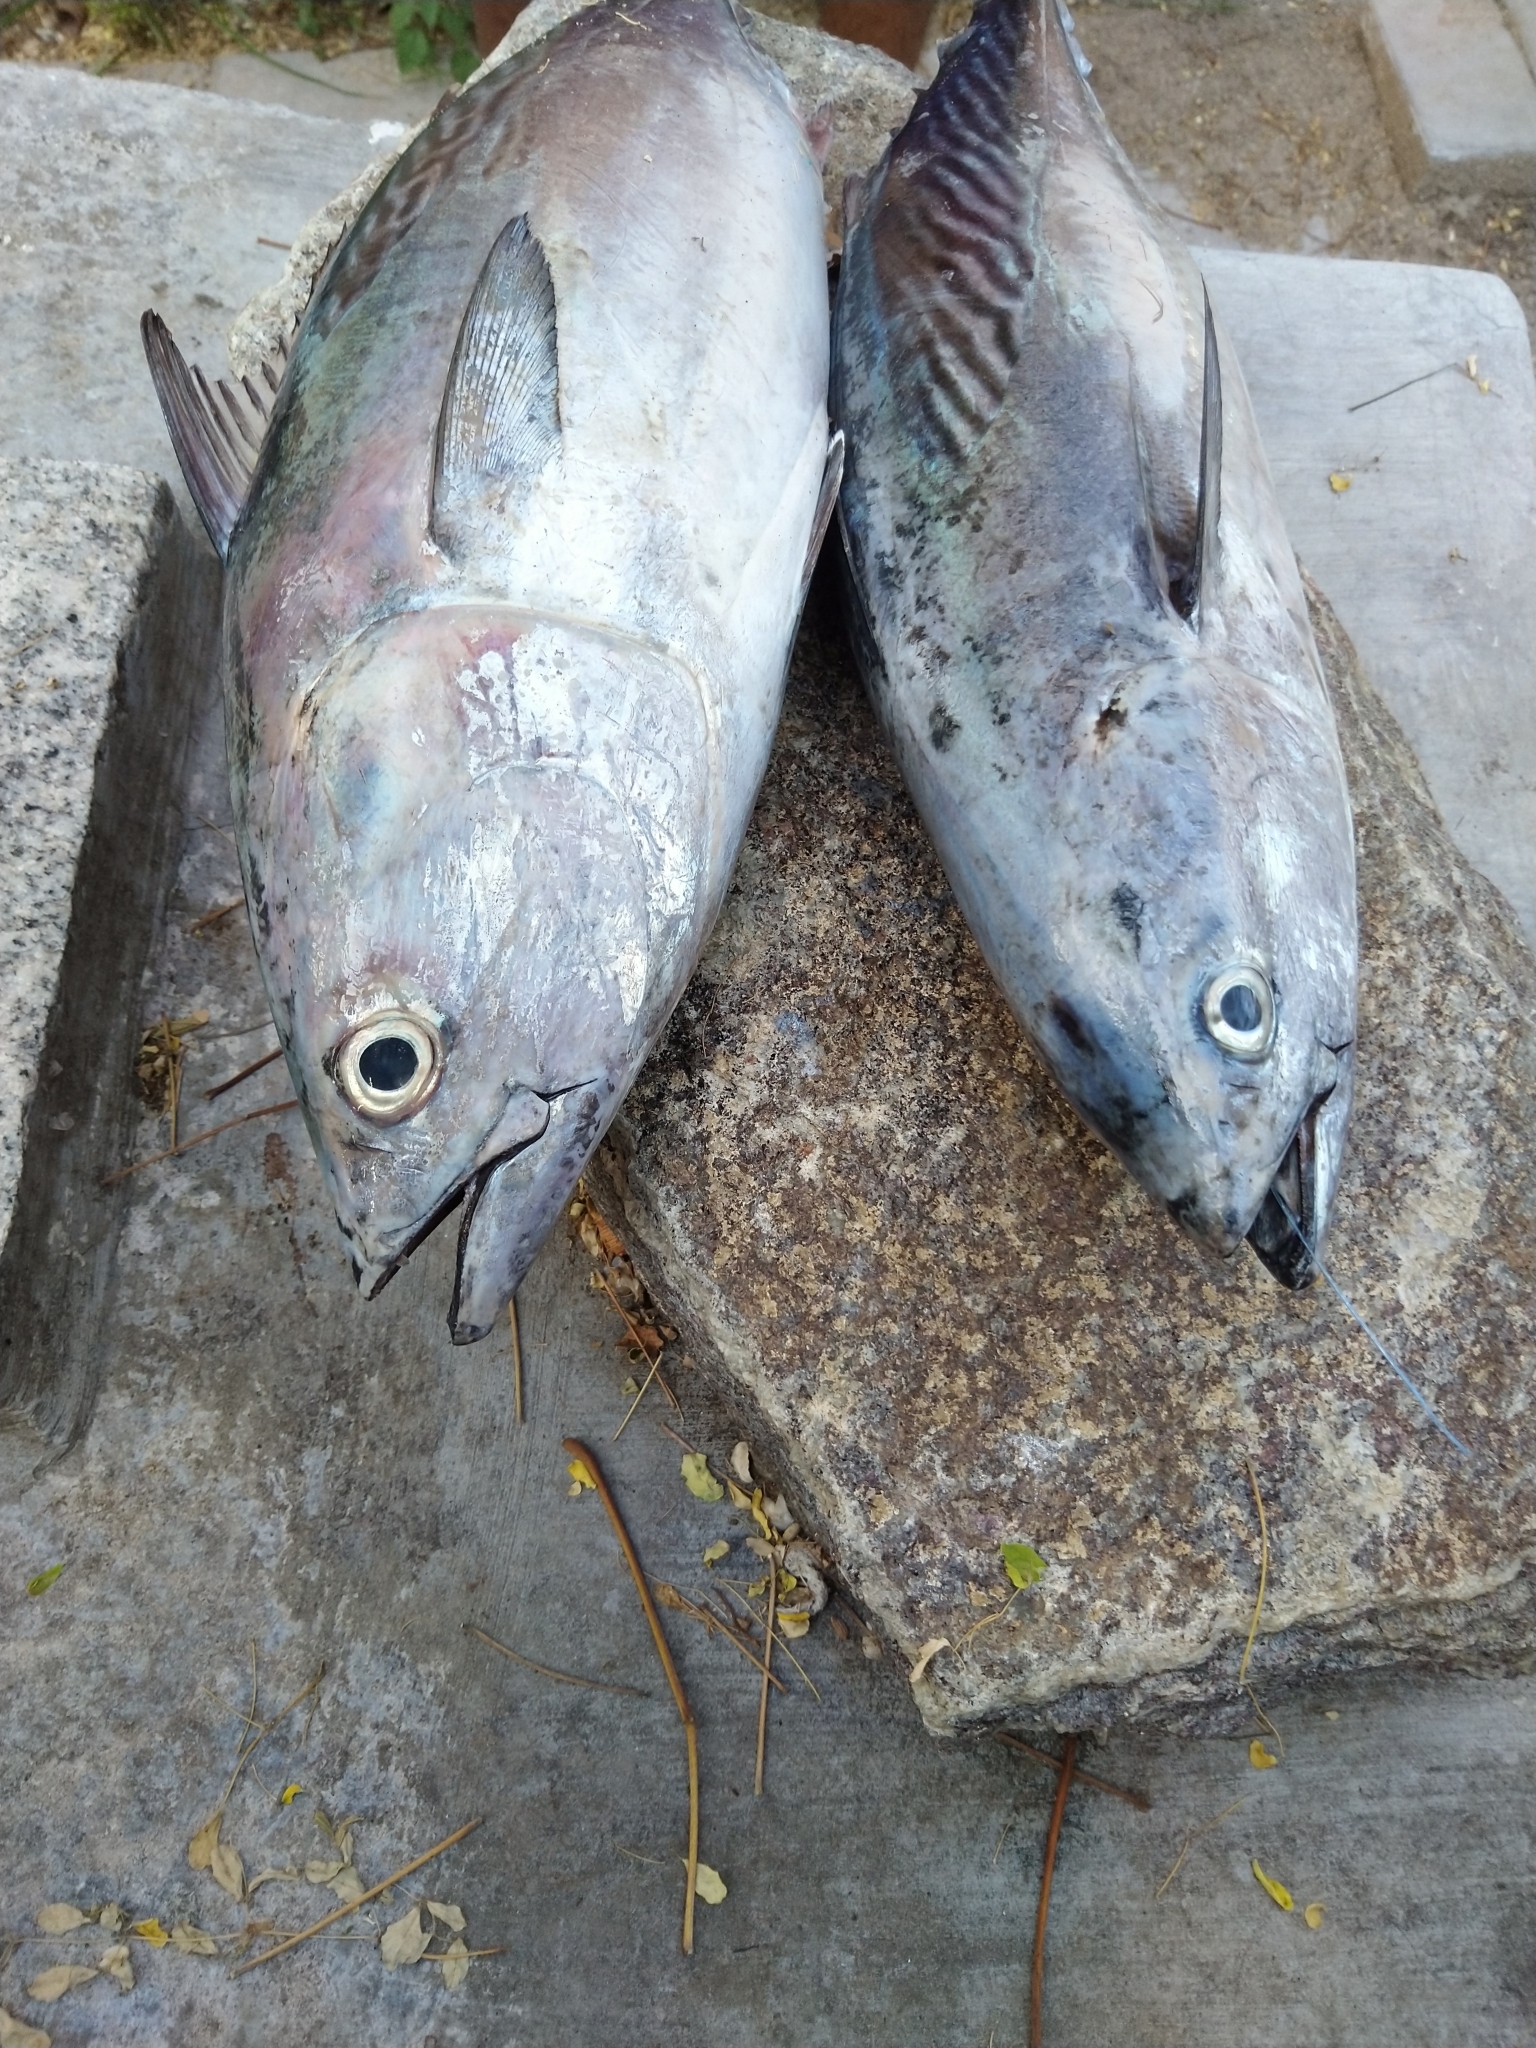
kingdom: Animalia
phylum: Chordata
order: Perciformes
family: Scombridae
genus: Euthynnus
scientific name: Euthynnus affinis
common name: Mackerel tuna
